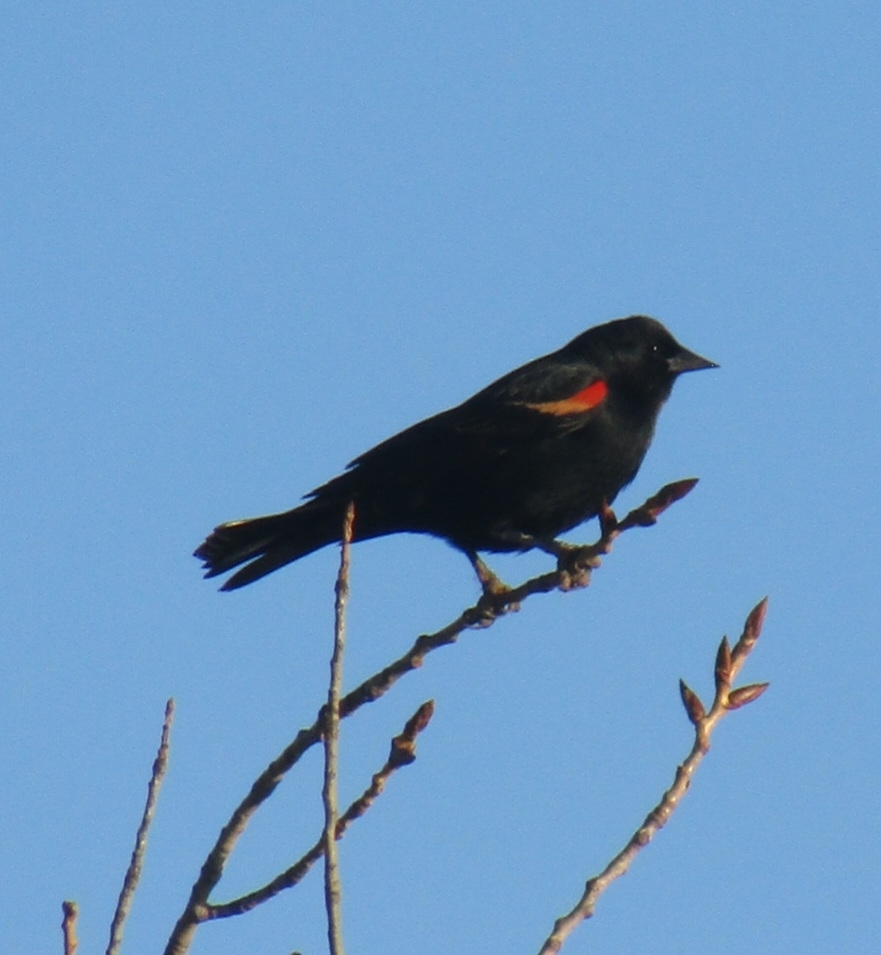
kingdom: Animalia
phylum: Chordata
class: Aves
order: Passeriformes
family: Icteridae
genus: Agelaius
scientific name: Agelaius phoeniceus
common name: Red-winged blackbird
